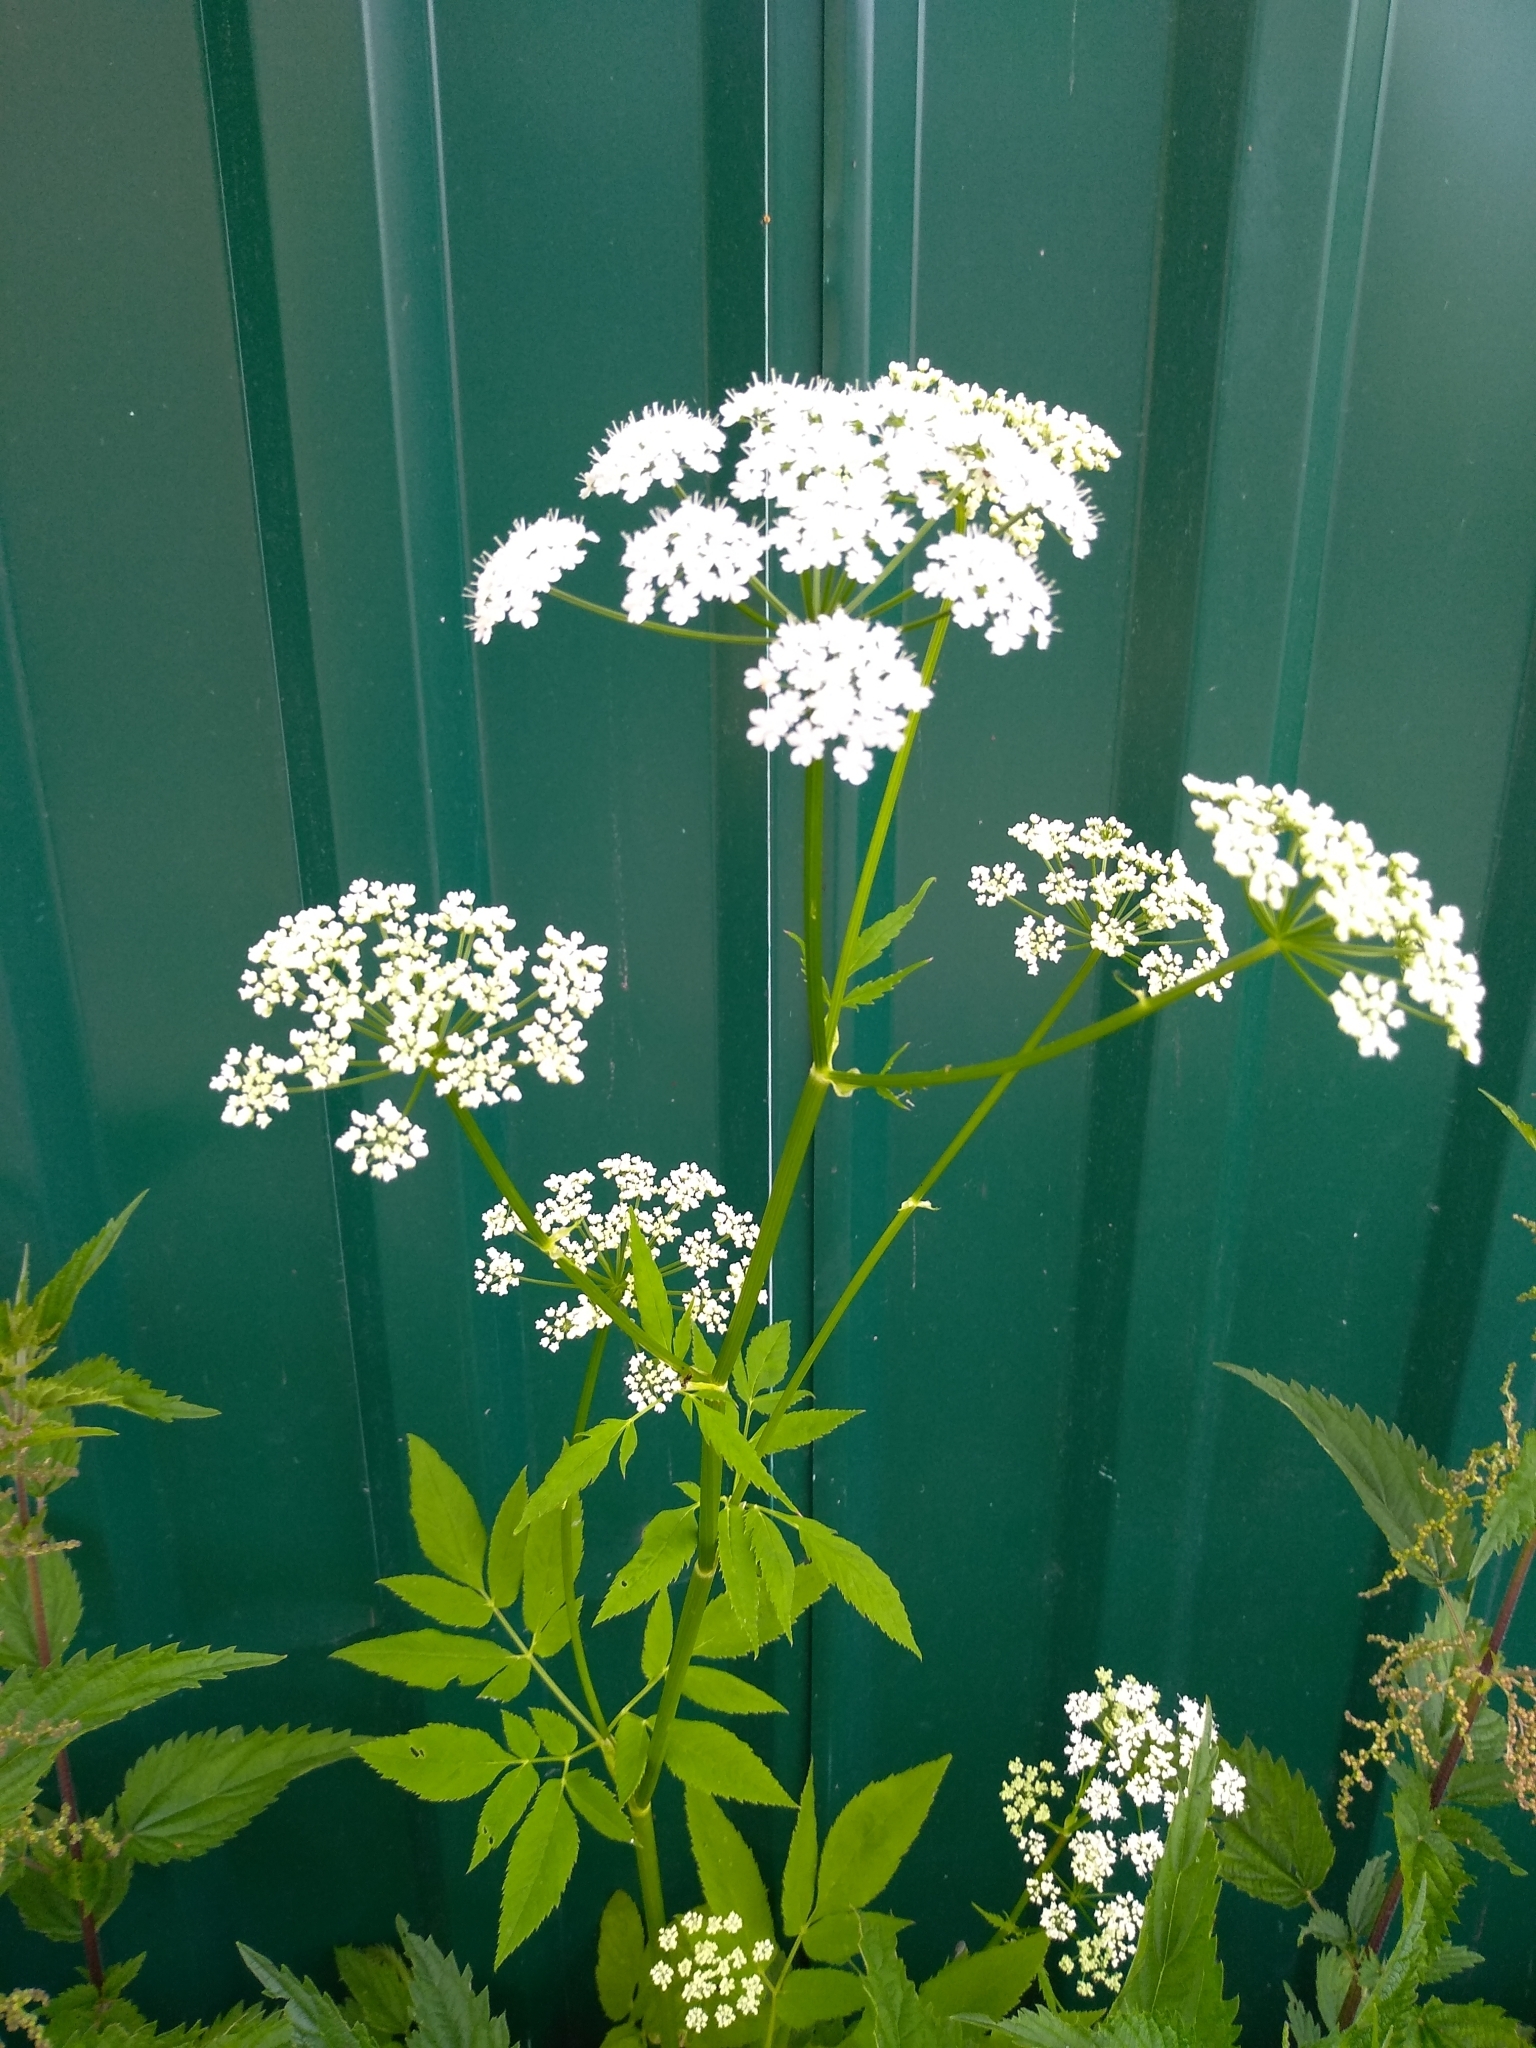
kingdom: Plantae
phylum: Tracheophyta
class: Magnoliopsida
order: Apiales
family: Apiaceae
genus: Aegopodium
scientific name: Aegopodium podagraria
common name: Ground-elder
